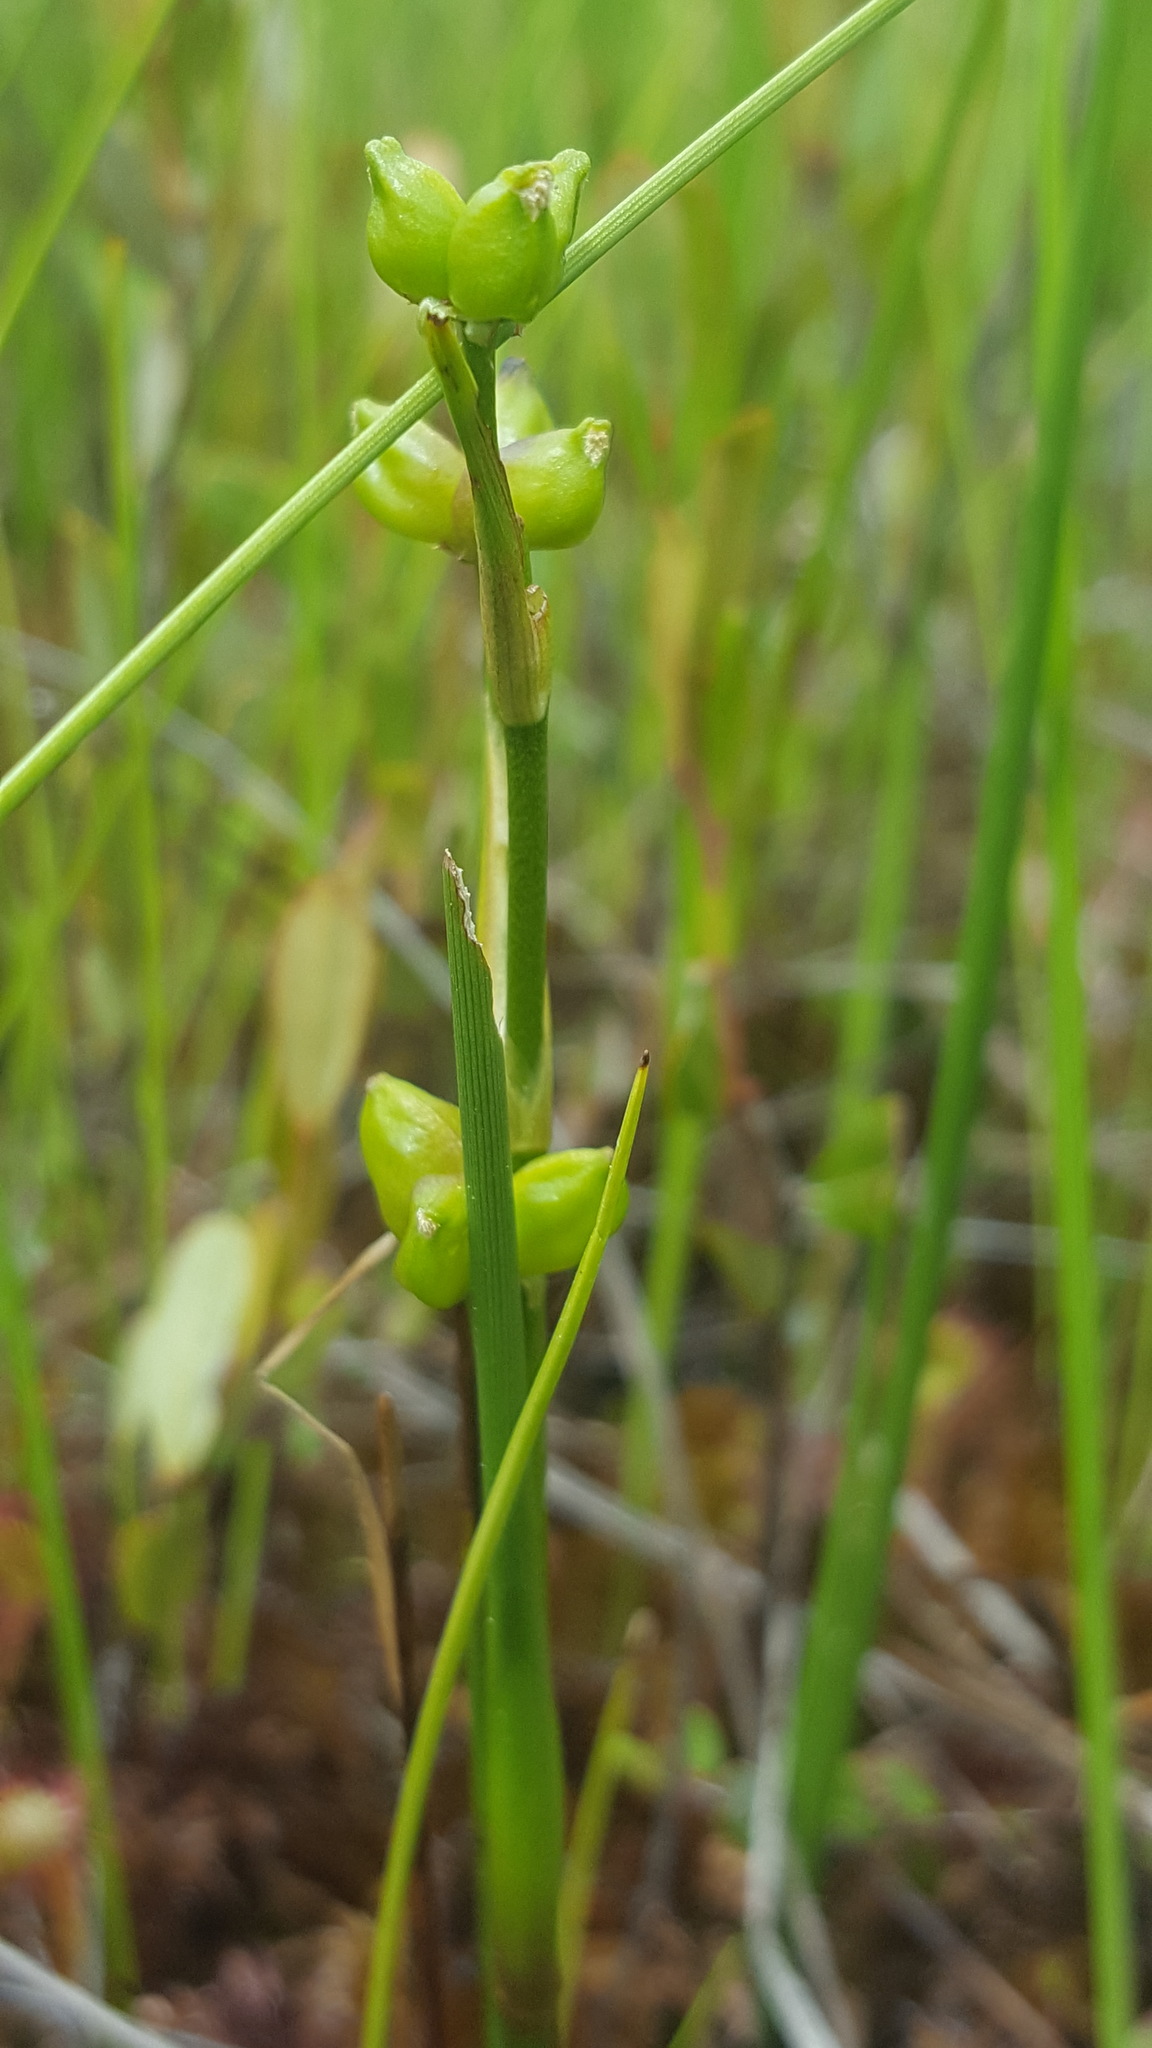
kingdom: Plantae
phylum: Tracheophyta
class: Liliopsida
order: Alismatales
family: Scheuchzeriaceae
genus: Scheuchzeria
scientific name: Scheuchzeria palustris
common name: Rannoch-rush
